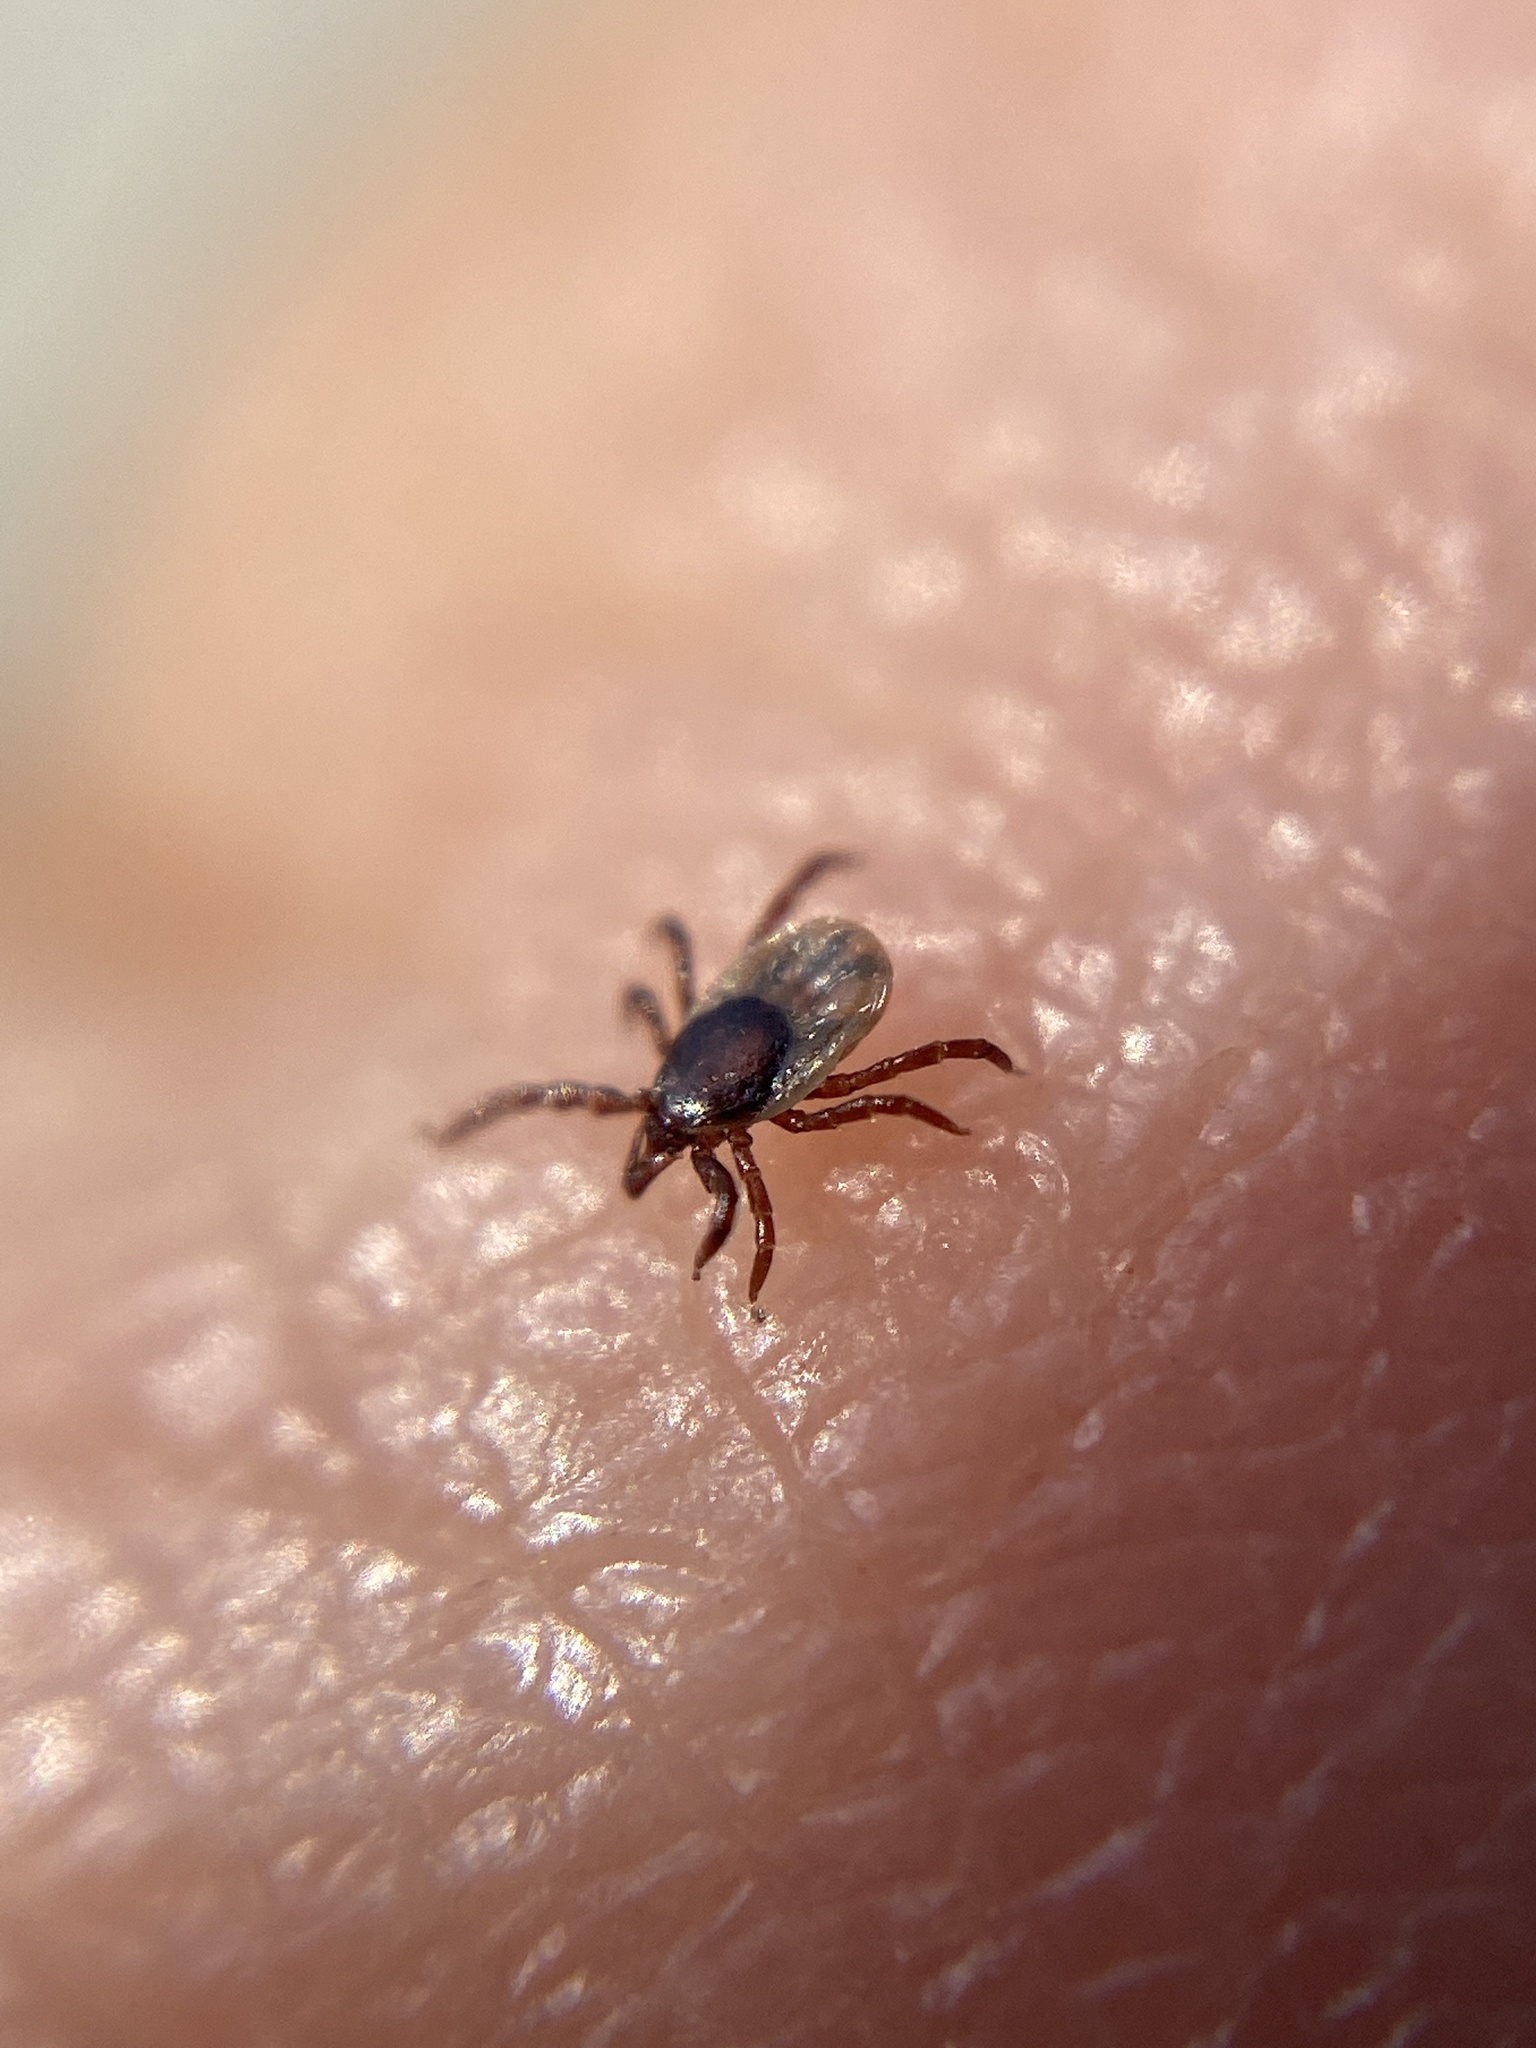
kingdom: Animalia
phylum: Arthropoda
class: Arachnida
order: Ixodida
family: Ixodidae
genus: Ixodes
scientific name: Ixodes ricinus
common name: Castor bean tick
